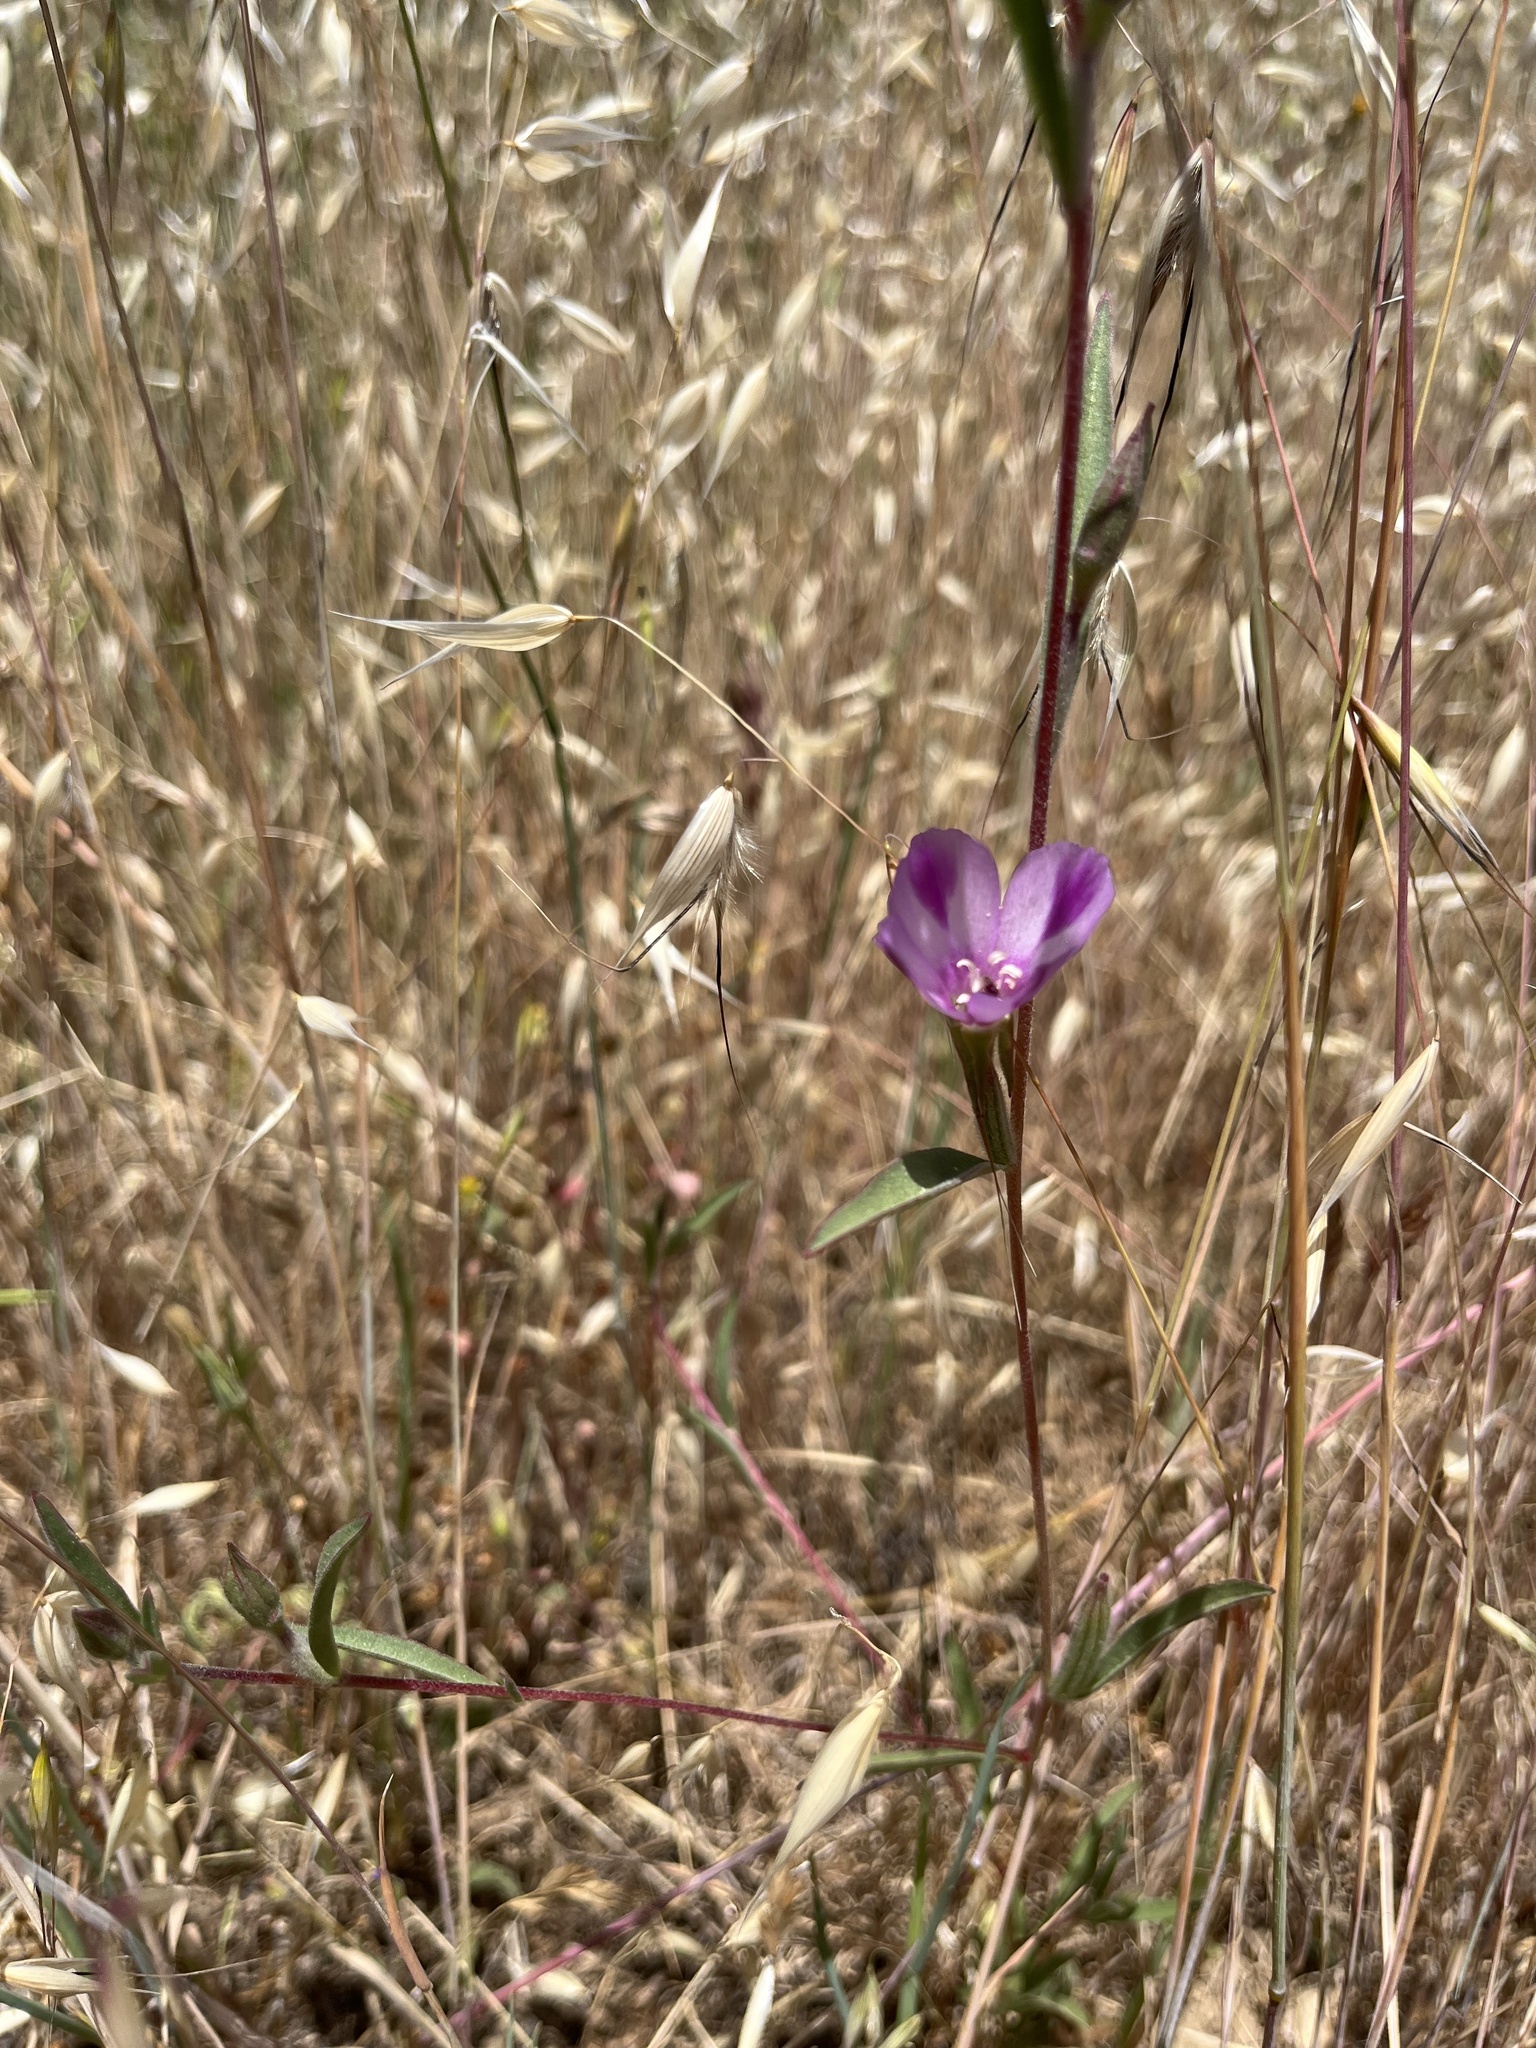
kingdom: Plantae
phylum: Tracheophyta
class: Magnoliopsida
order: Myrtales
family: Onagraceae
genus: Clarkia
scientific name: Clarkia purpurea
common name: Purple clarkia
